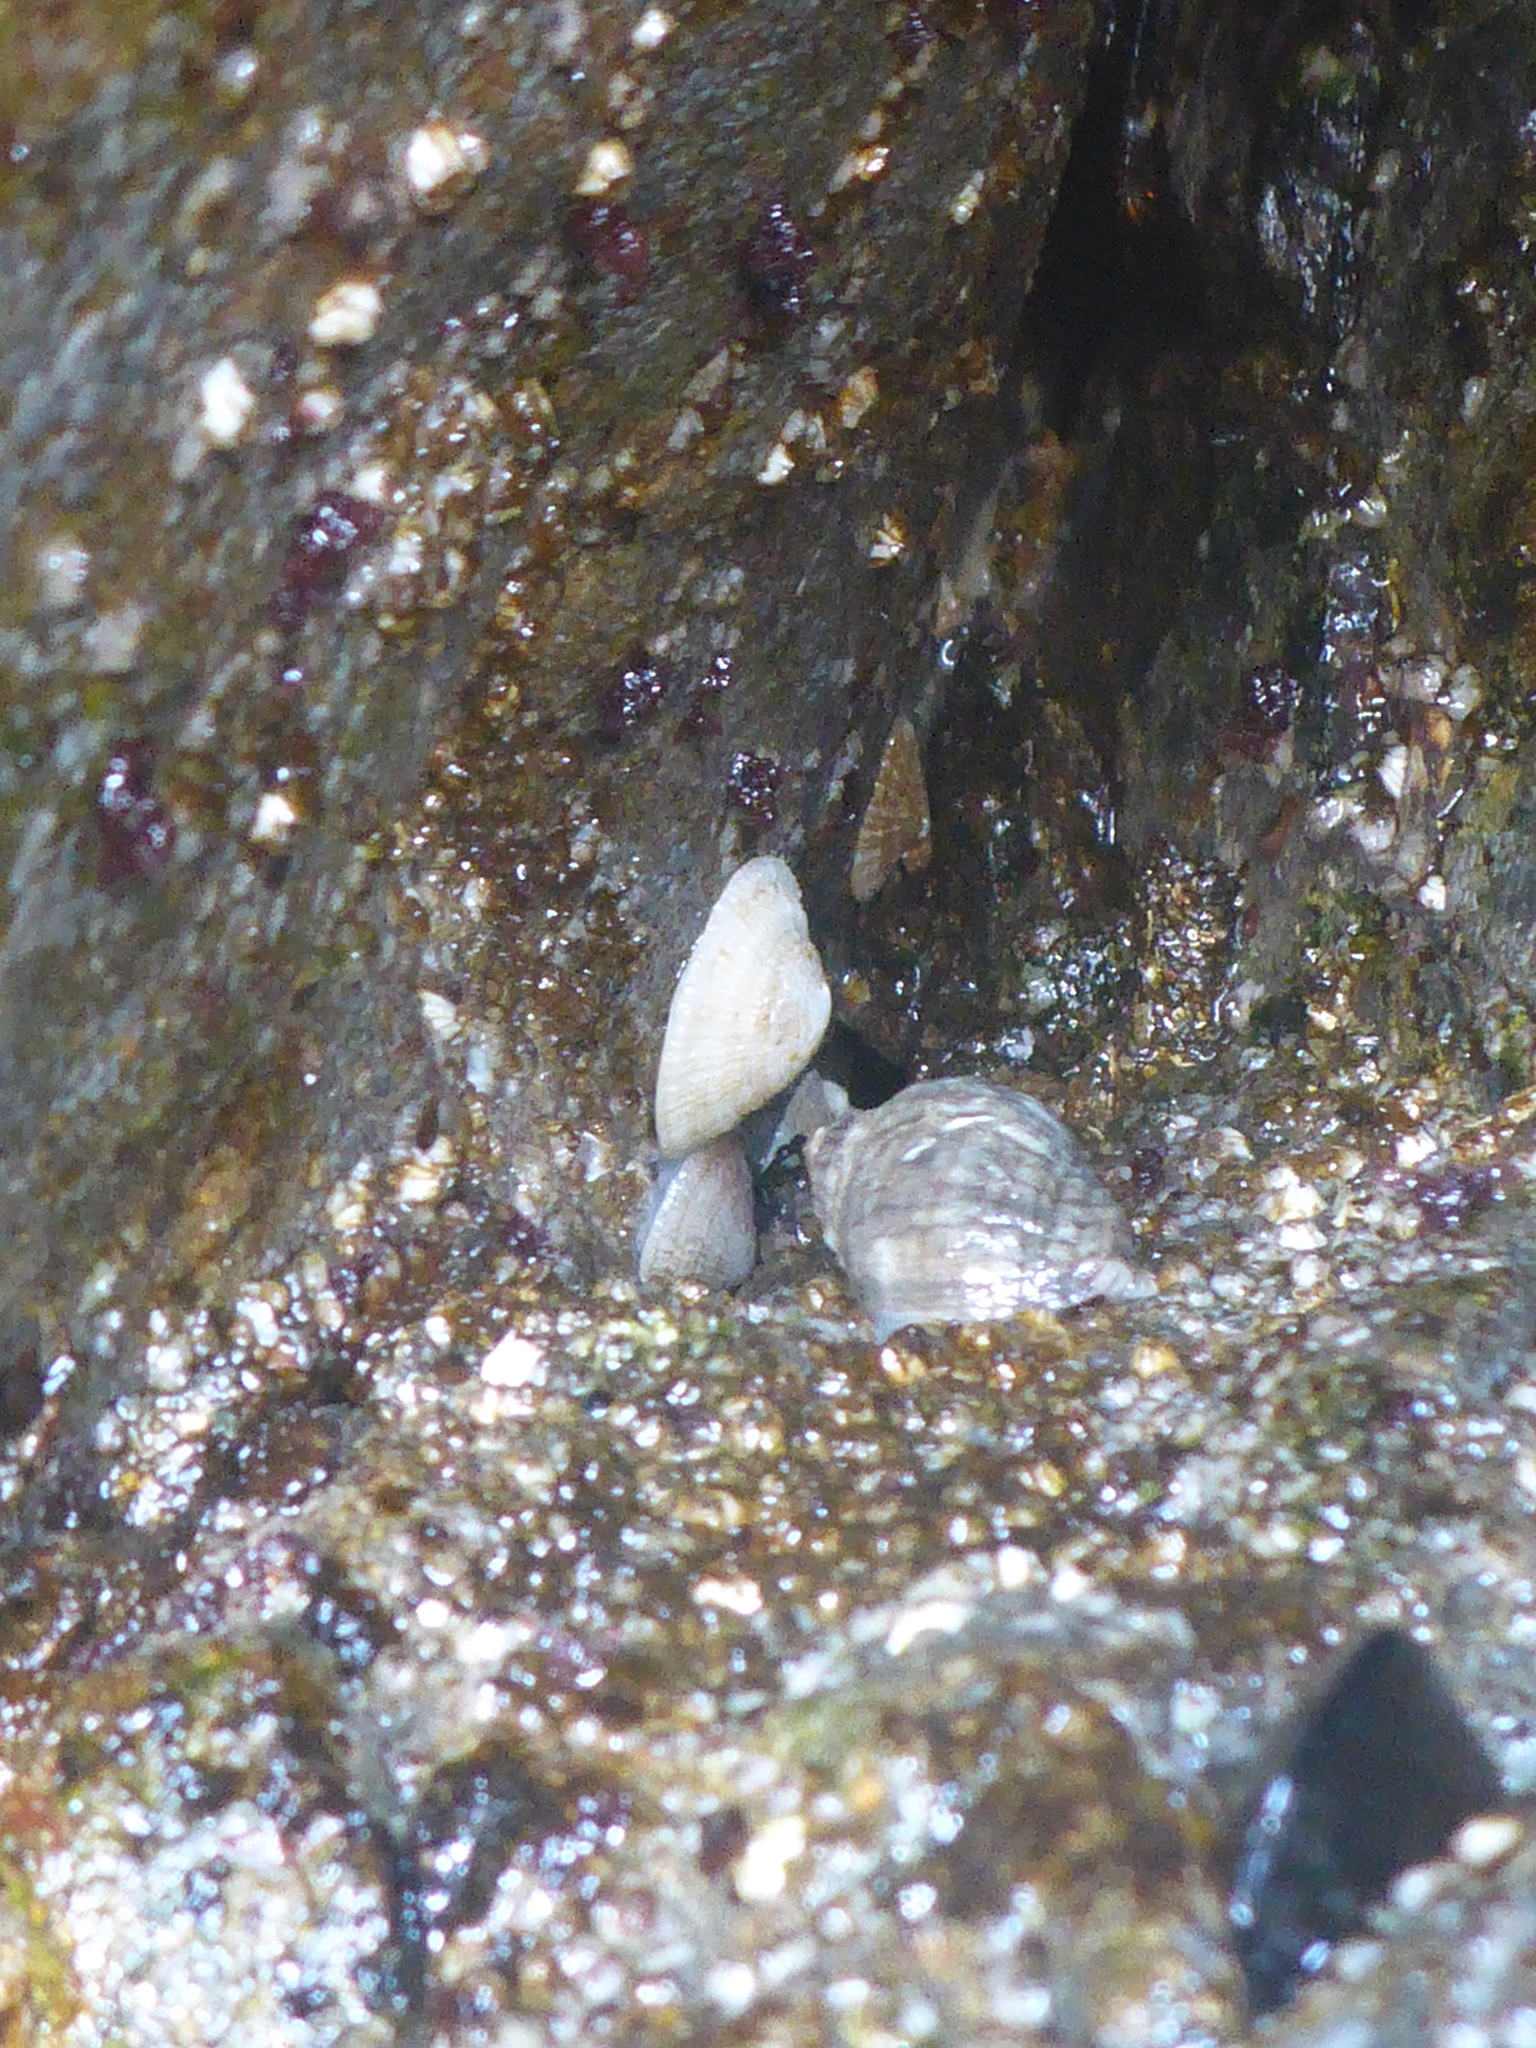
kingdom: Animalia
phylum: Mollusca
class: Gastropoda
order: Ellobiida
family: Trimusculidae
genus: Trimusculus
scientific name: Trimusculus reticulatus
